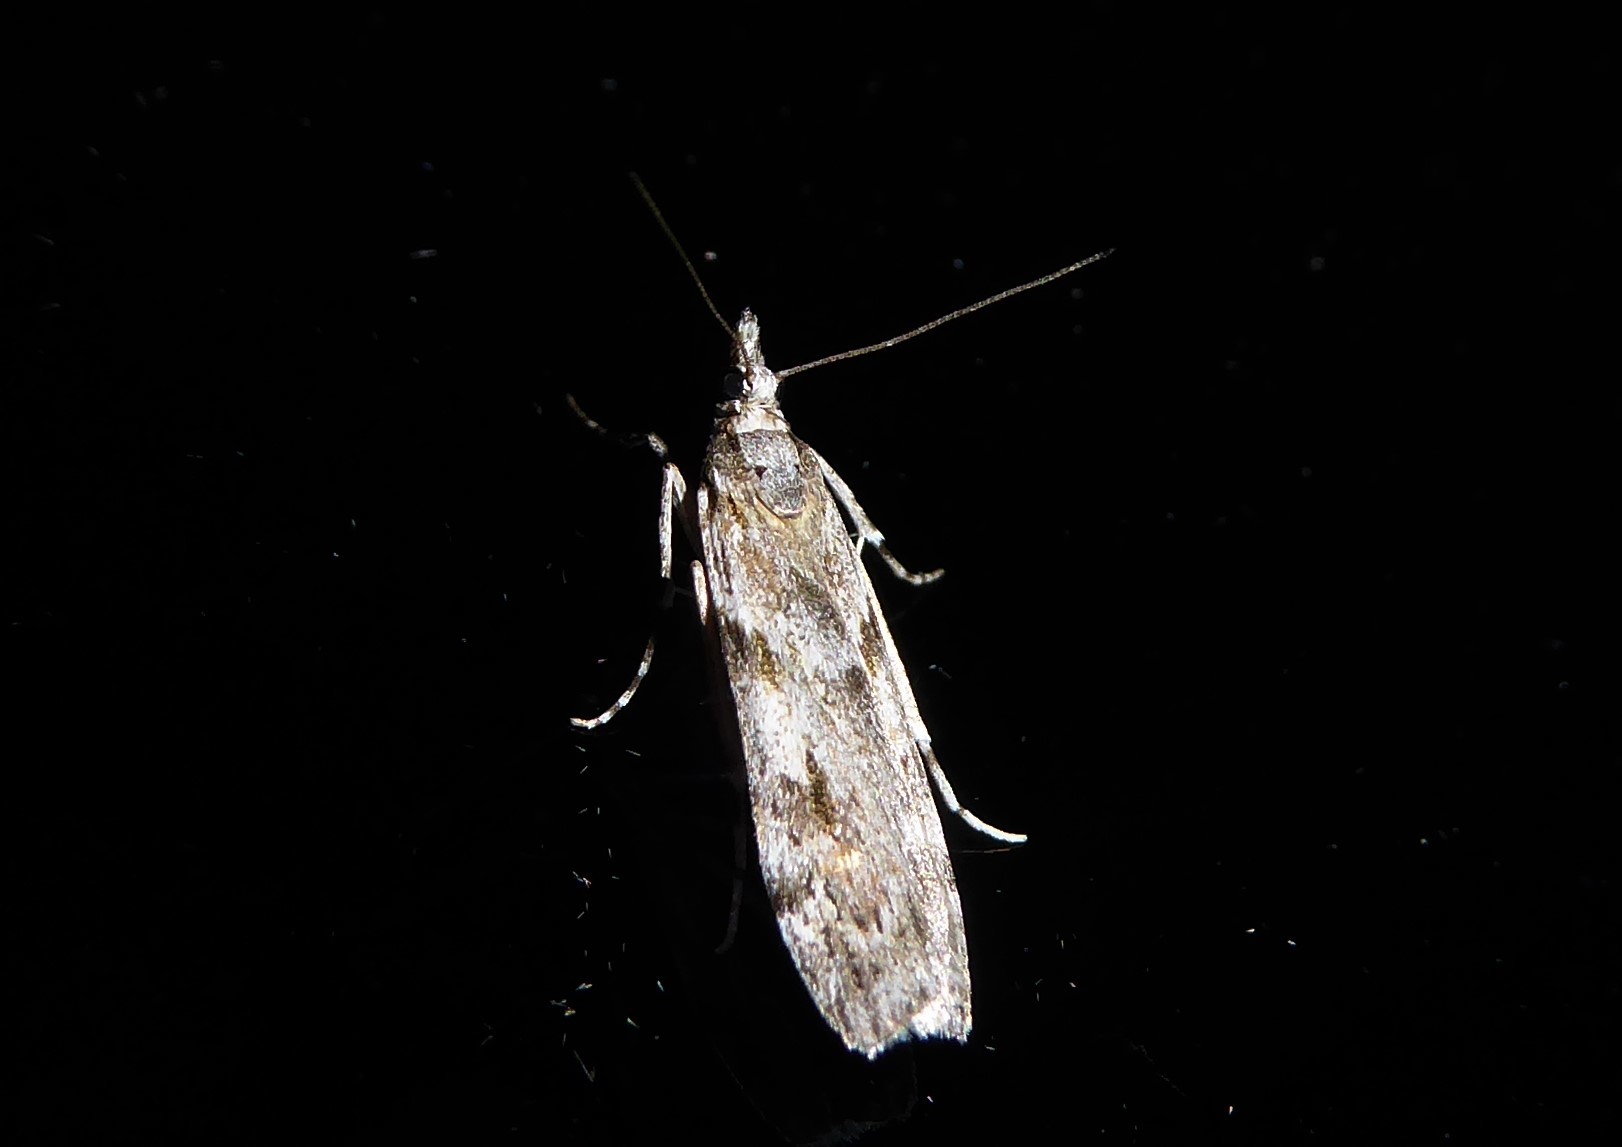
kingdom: Animalia
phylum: Arthropoda
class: Insecta
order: Lepidoptera
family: Crambidae
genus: Scoparia
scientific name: Scoparia halopis
